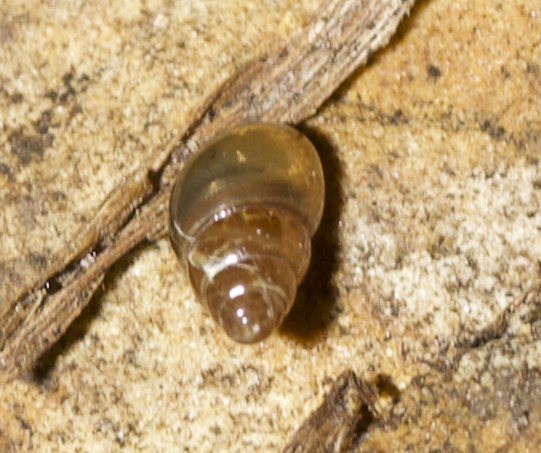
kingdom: Animalia
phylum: Mollusca
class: Gastropoda
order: Stylommatophora
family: Cochlicopidae
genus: Cochlicopa
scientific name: Cochlicopa lubrica
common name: Glossy pillar snail
